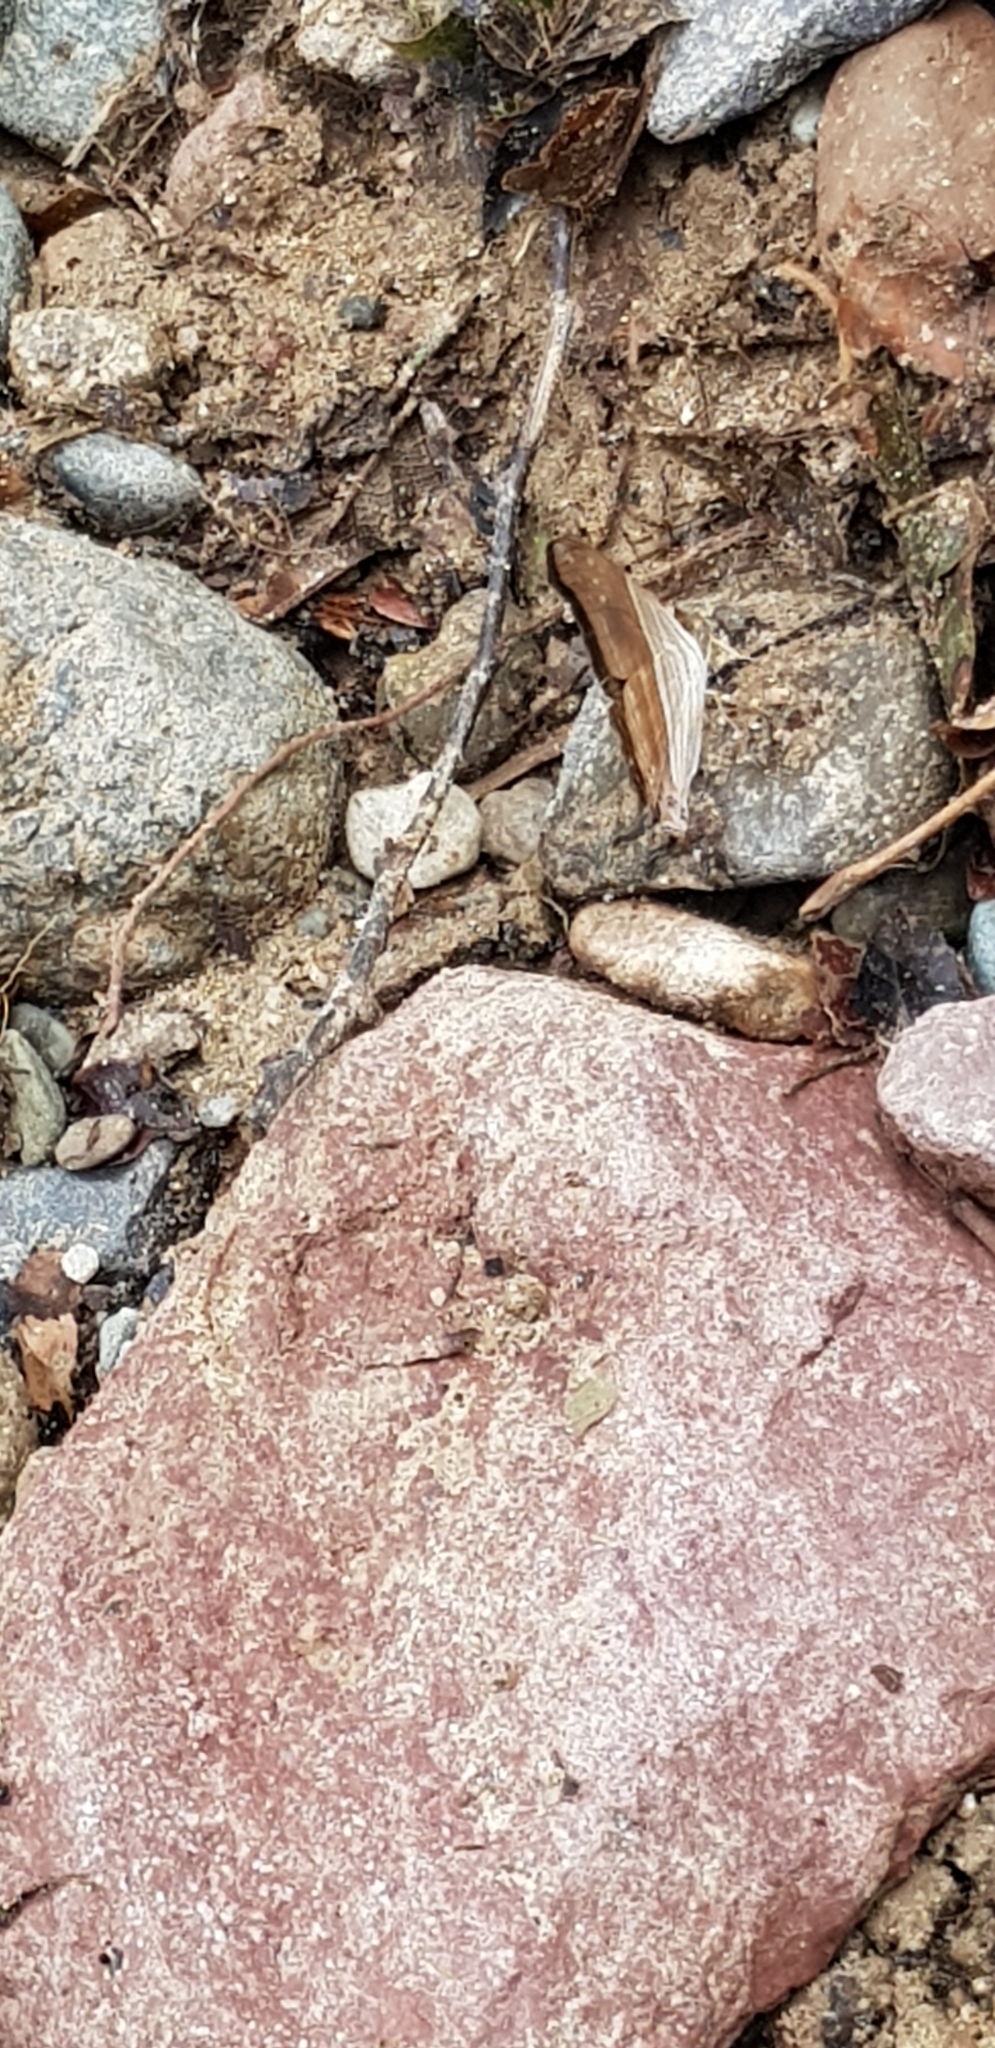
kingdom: Animalia
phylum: Arthropoda
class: Insecta
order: Lepidoptera
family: Nymphalidae
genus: Marpesia
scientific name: Marpesia chiron
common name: Many-banded daggerwing
